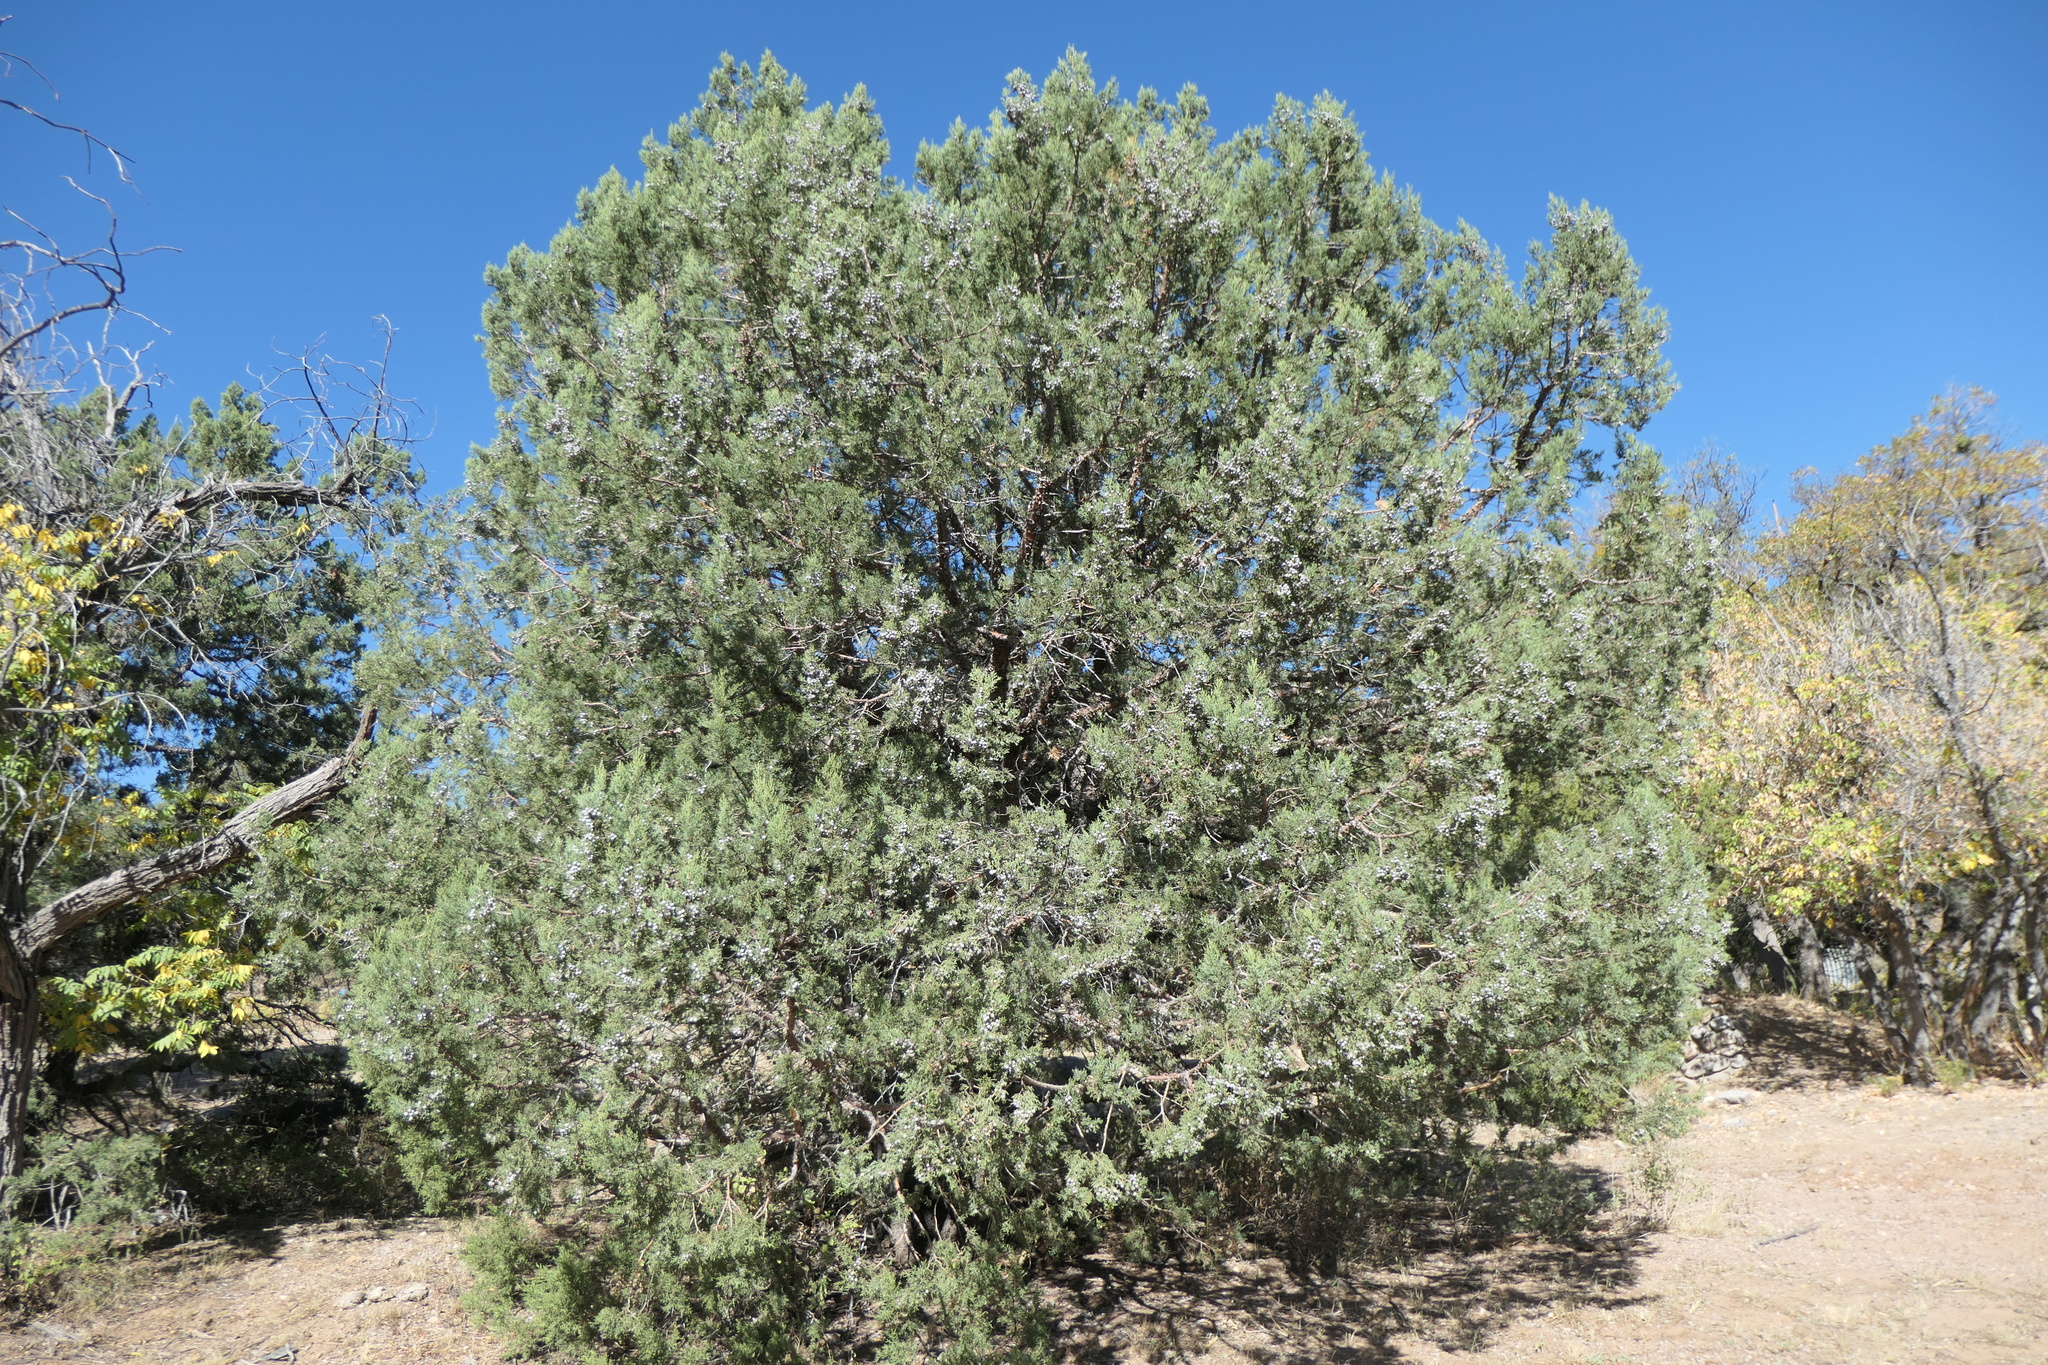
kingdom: Plantae
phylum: Tracheophyta
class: Pinopsida
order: Pinales
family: Cupressaceae
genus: Juniperus
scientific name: Juniperus deppeana
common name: Alligator juniper
